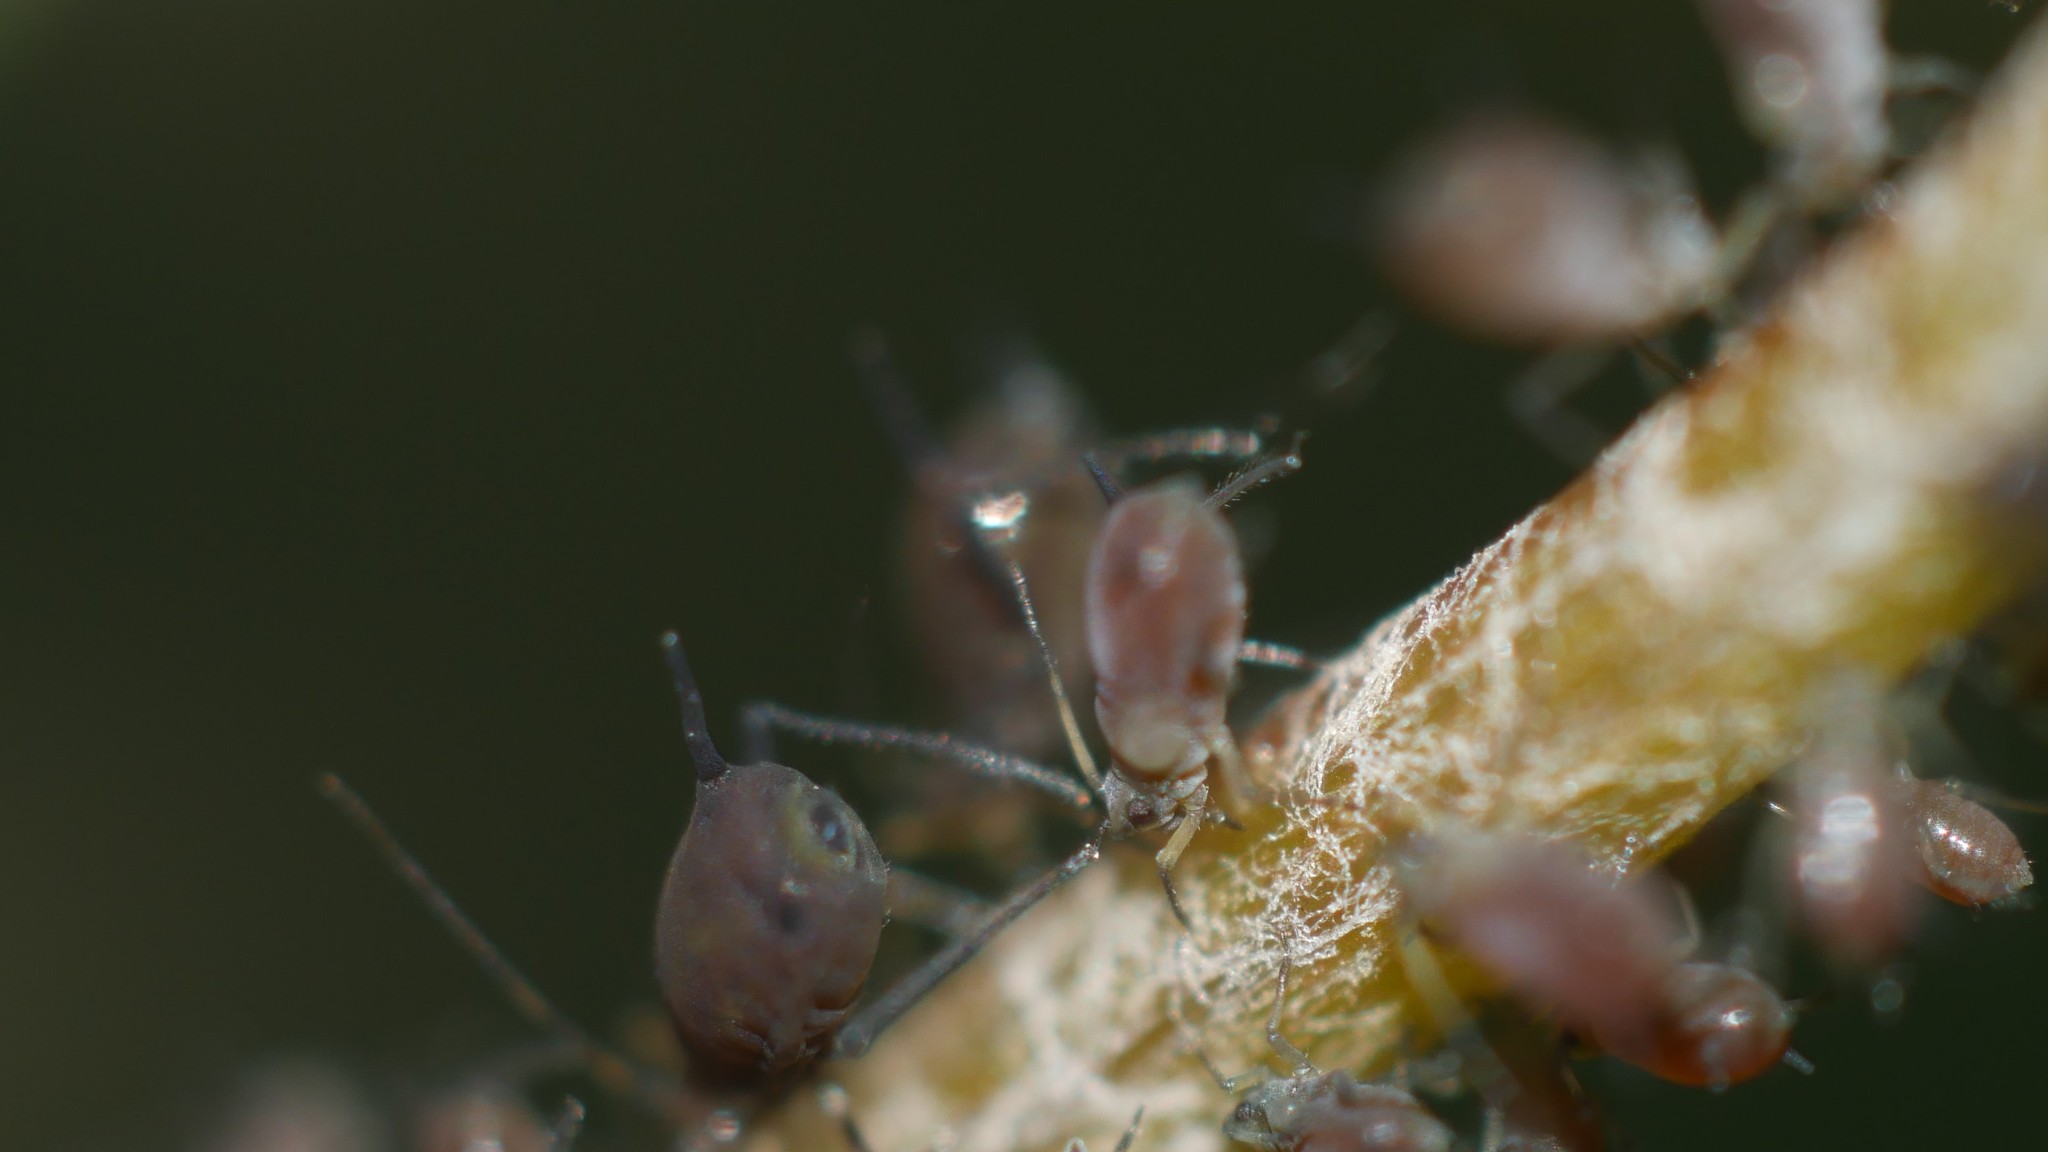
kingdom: Animalia
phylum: Arthropoda
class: Insecta
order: Hemiptera
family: Aphididae
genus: Aphis
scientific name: Aphis illinoisensis
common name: Grapevine aphid
